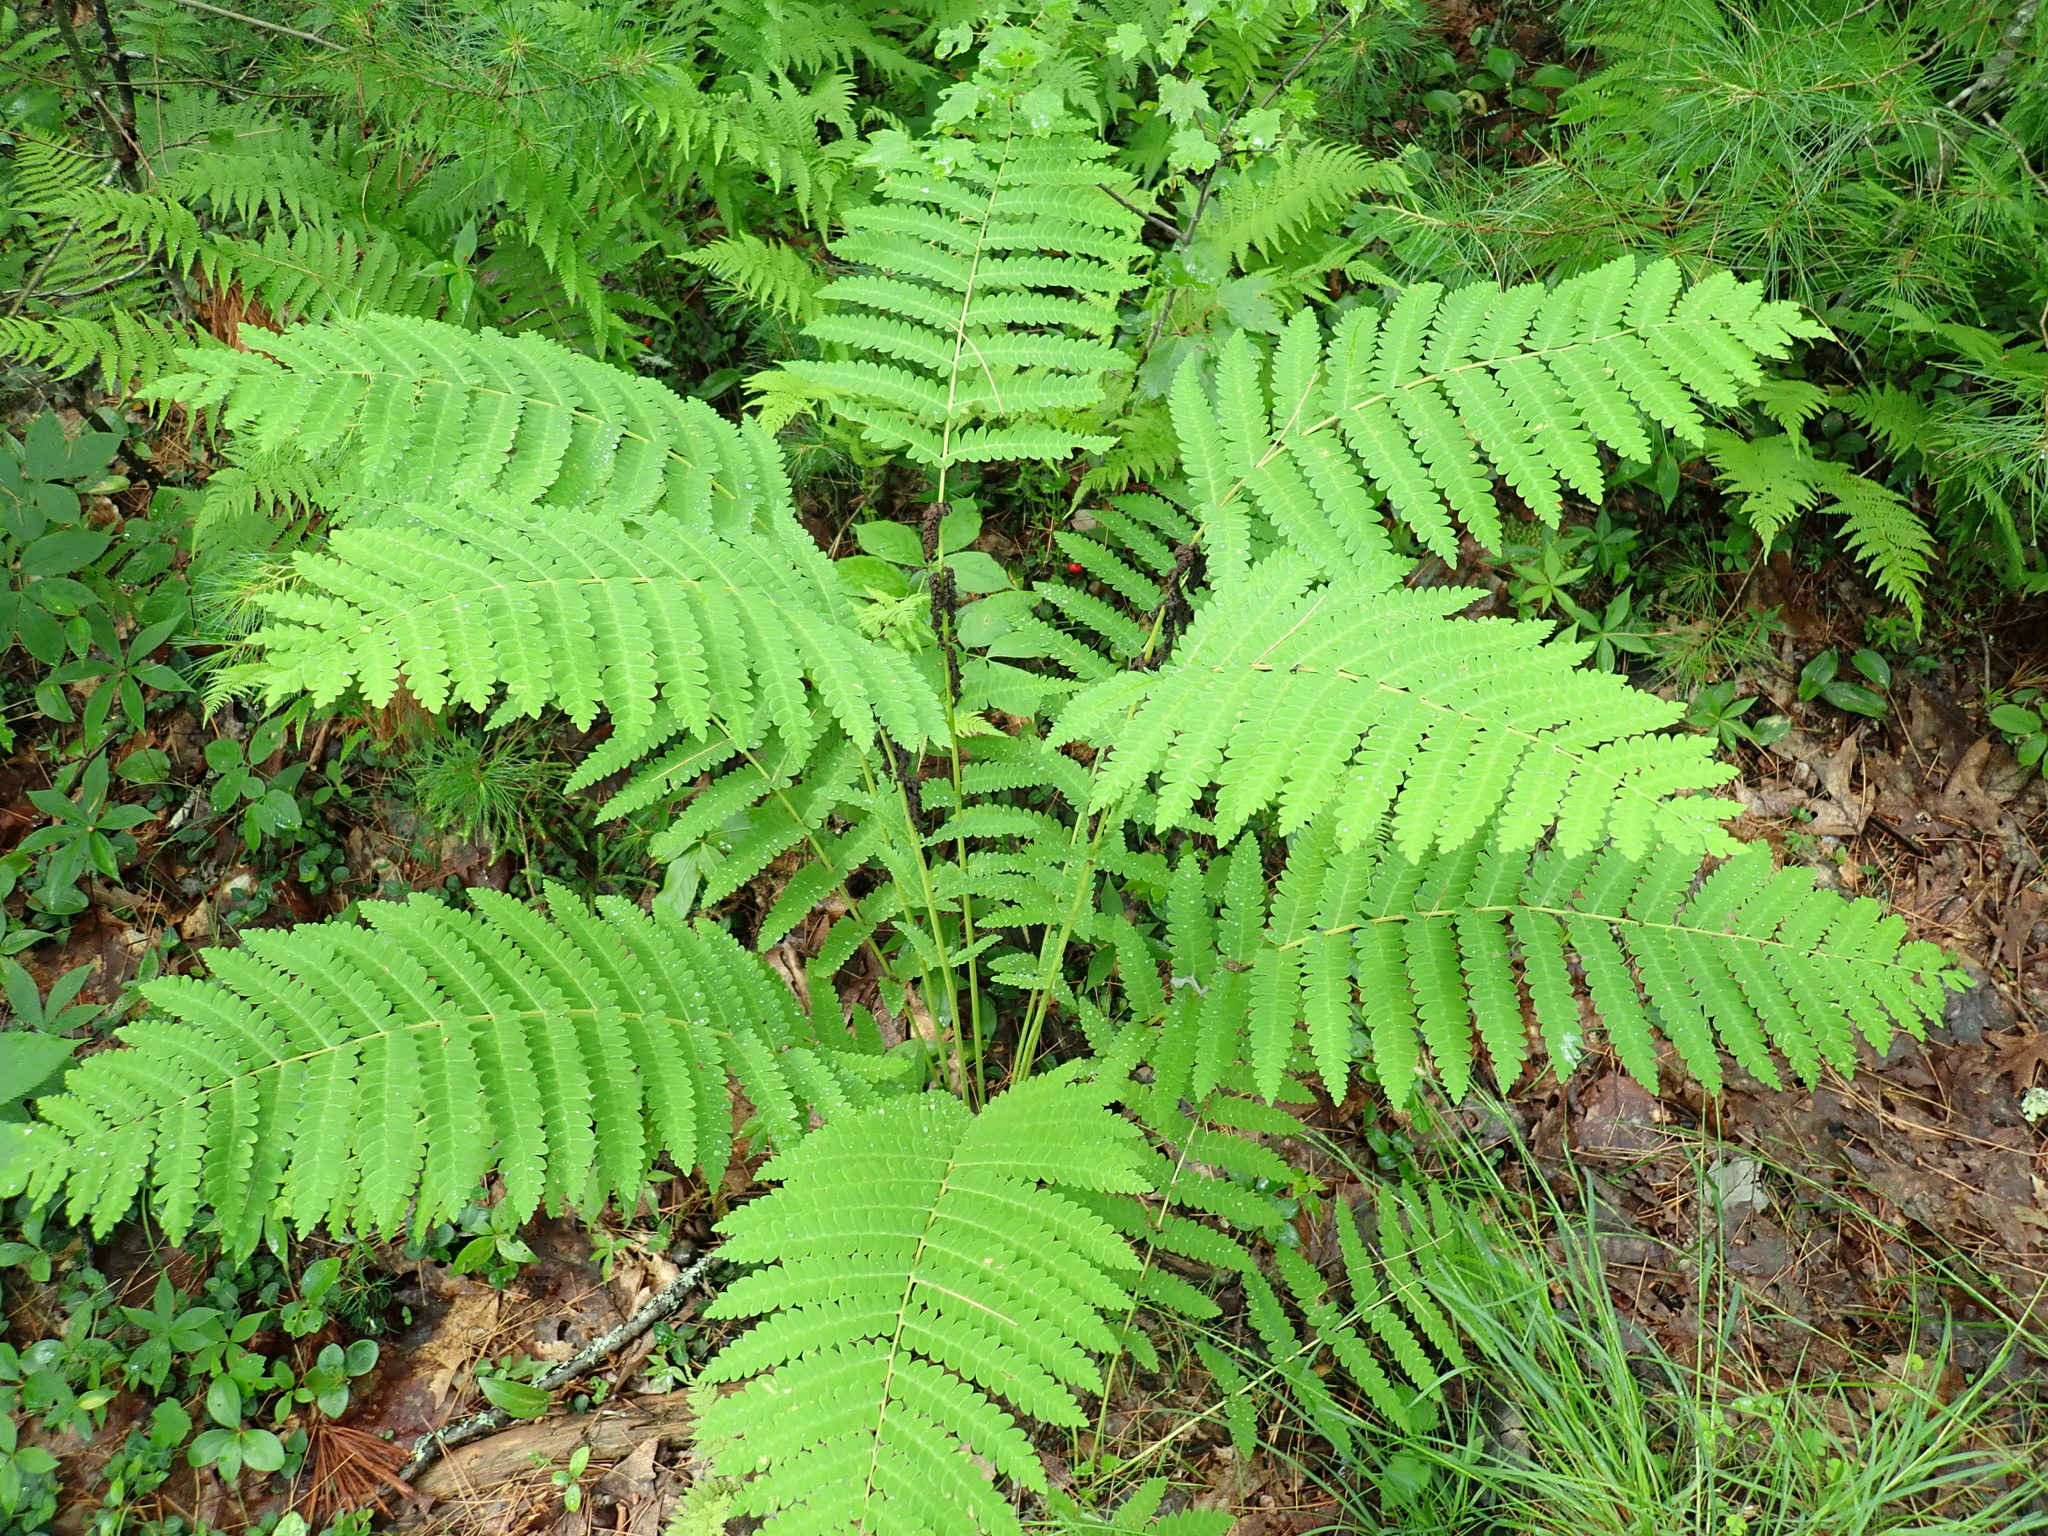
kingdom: Plantae
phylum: Tracheophyta
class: Polypodiopsida
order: Osmundales
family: Osmundaceae
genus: Claytosmunda
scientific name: Claytosmunda claytoniana
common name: Clayton's fern
